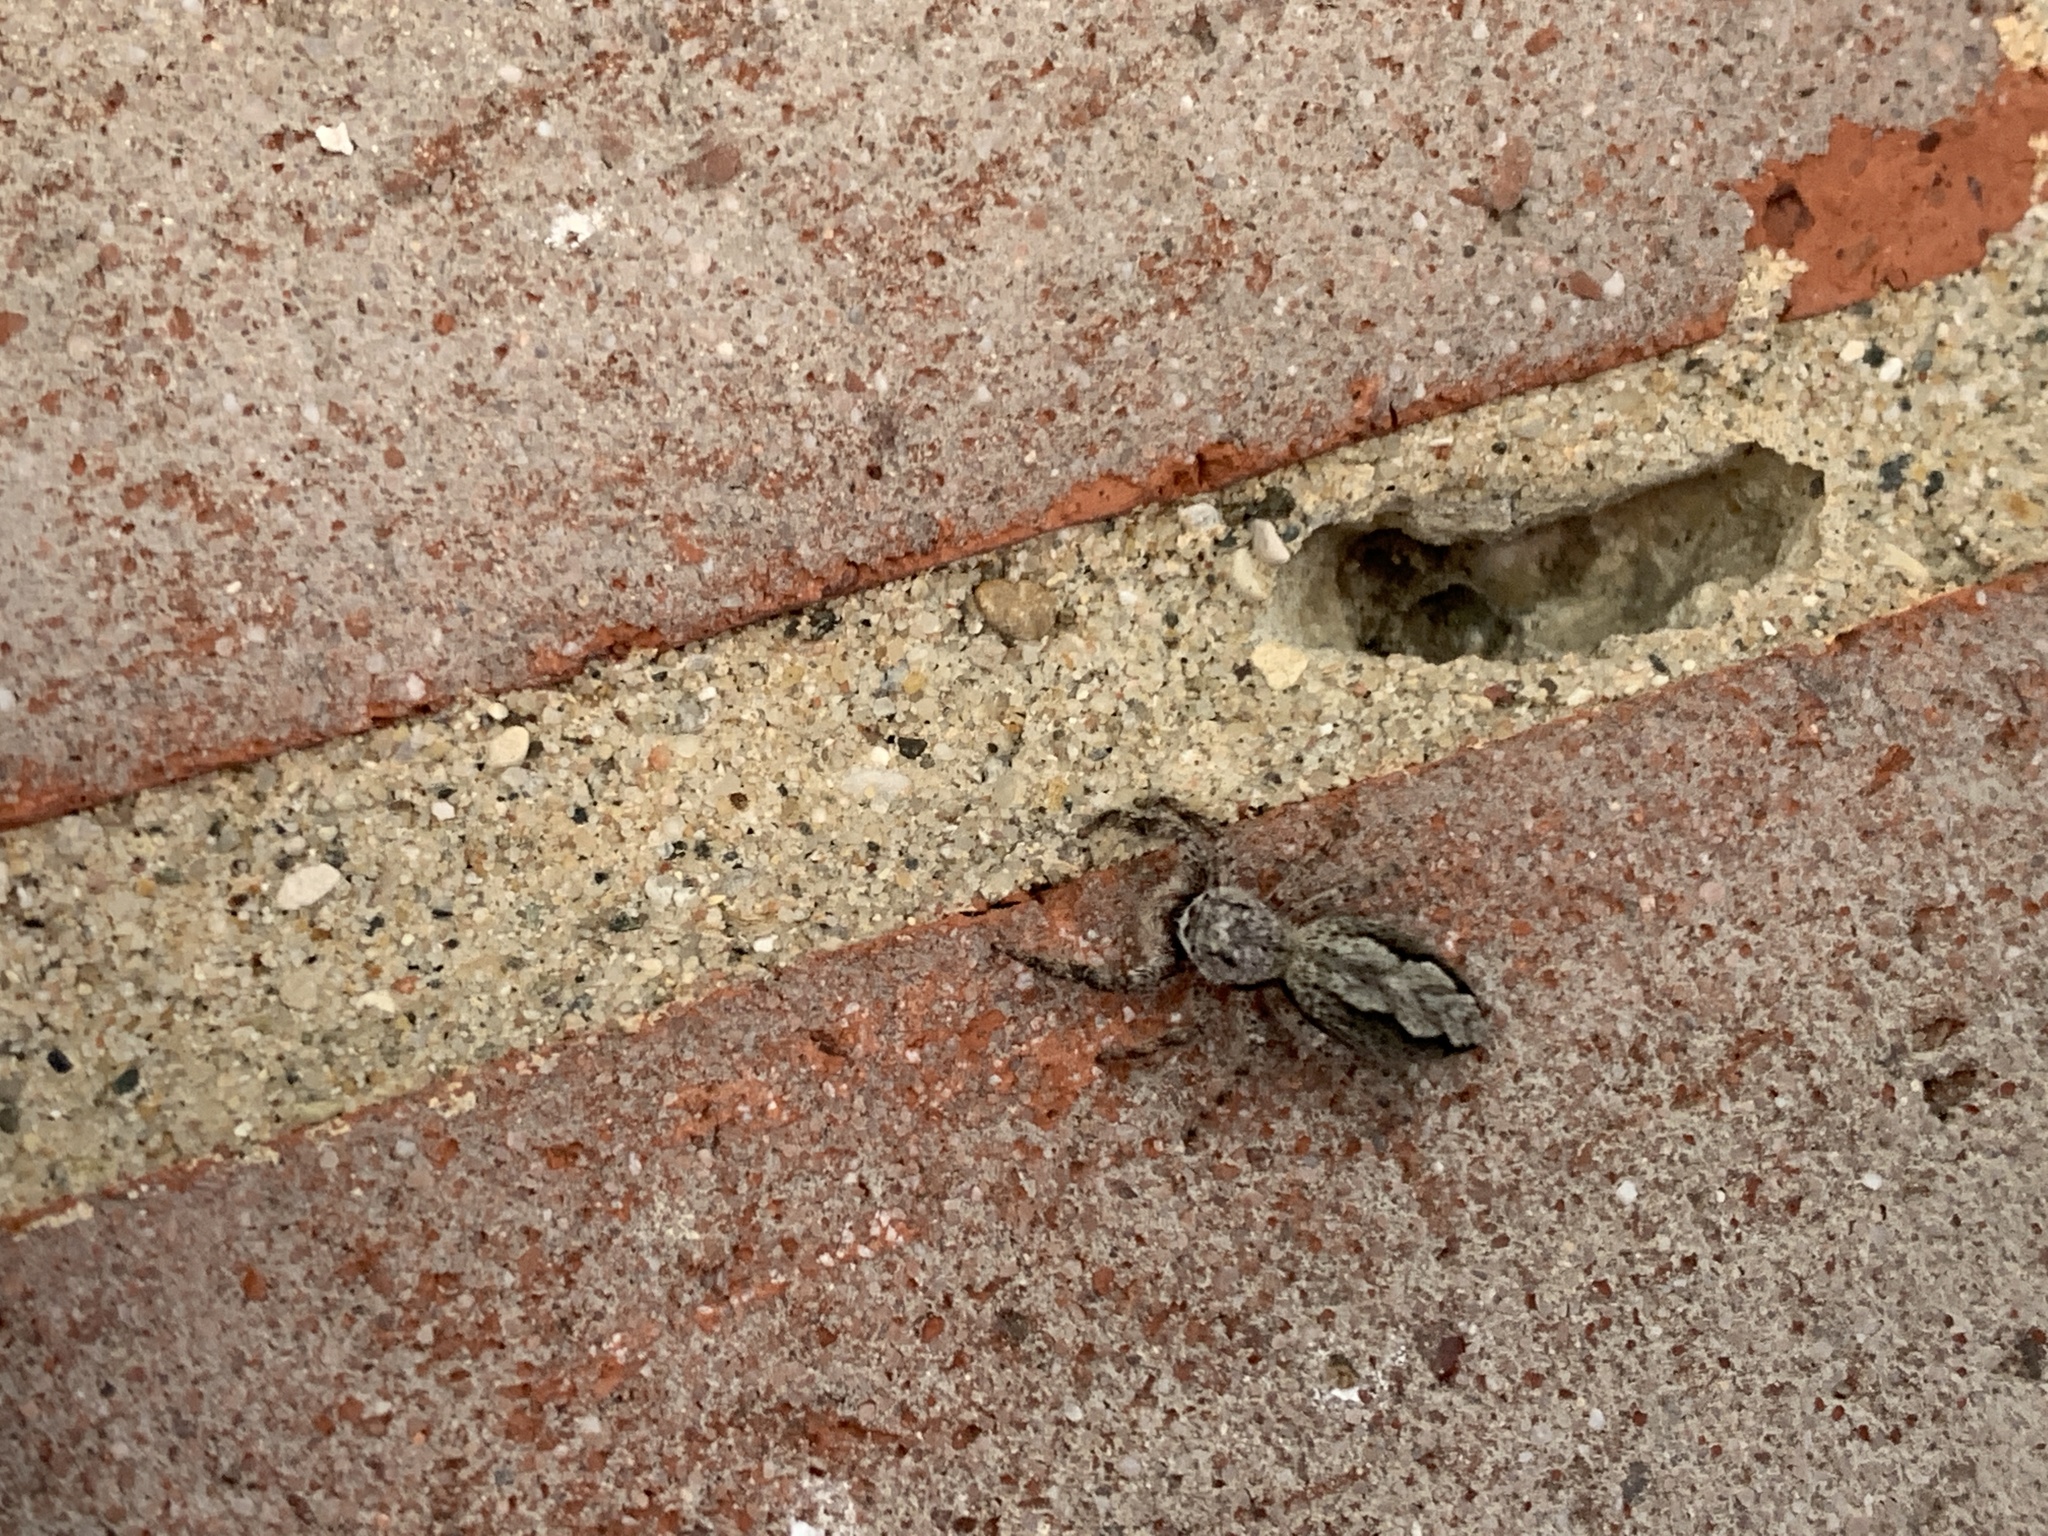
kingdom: Animalia
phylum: Arthropoda
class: Arachnida
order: Araneae
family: Salticidae
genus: Platycryptus
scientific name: Platycryptus undatus
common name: Tan jumping spider
